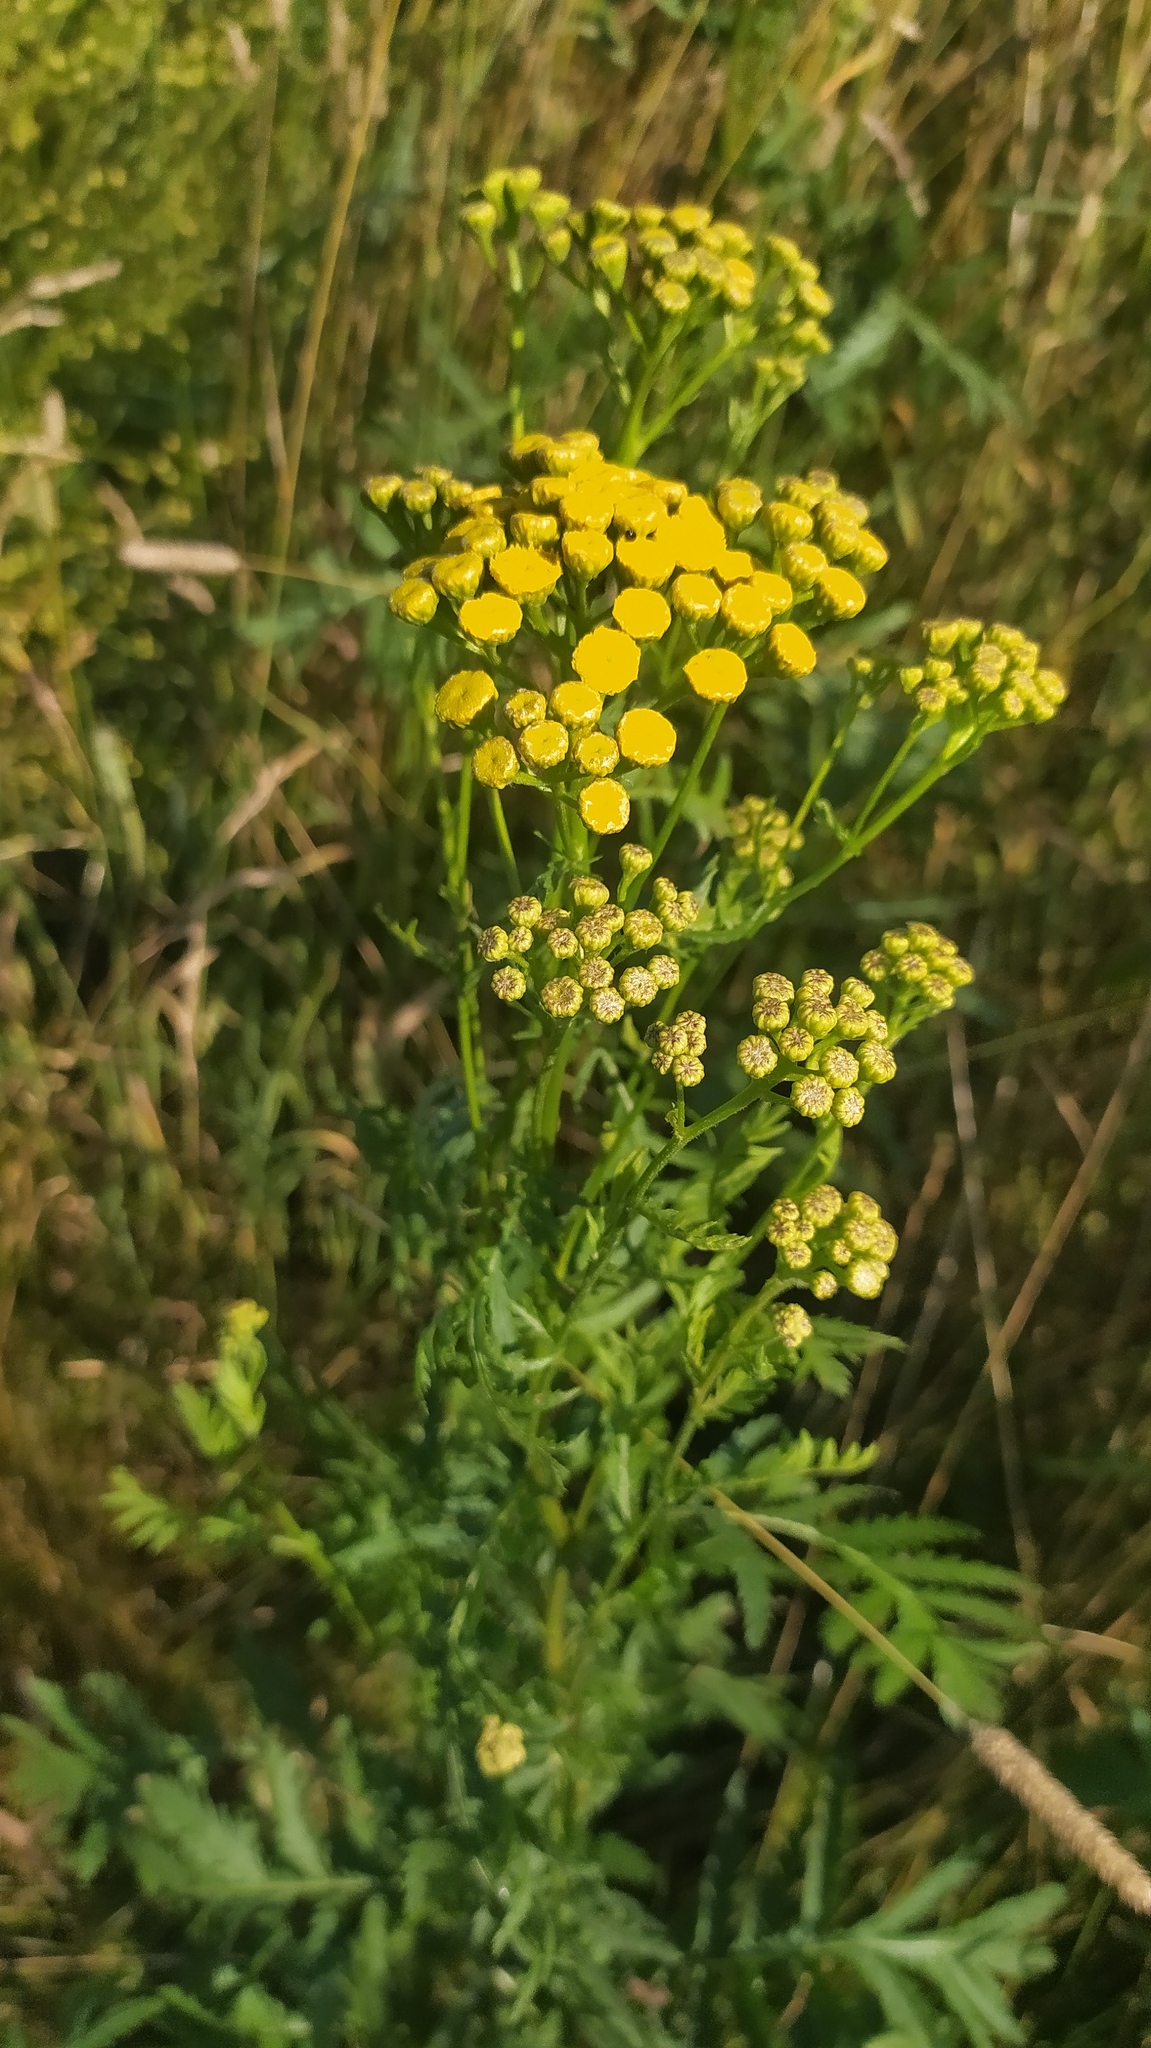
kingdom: Plantae
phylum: Tracheophyta
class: Magnoliopsida
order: Asterales
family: Asteraceae
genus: Tanacetum
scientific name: Tanacetum vulgare
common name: Common tansy
